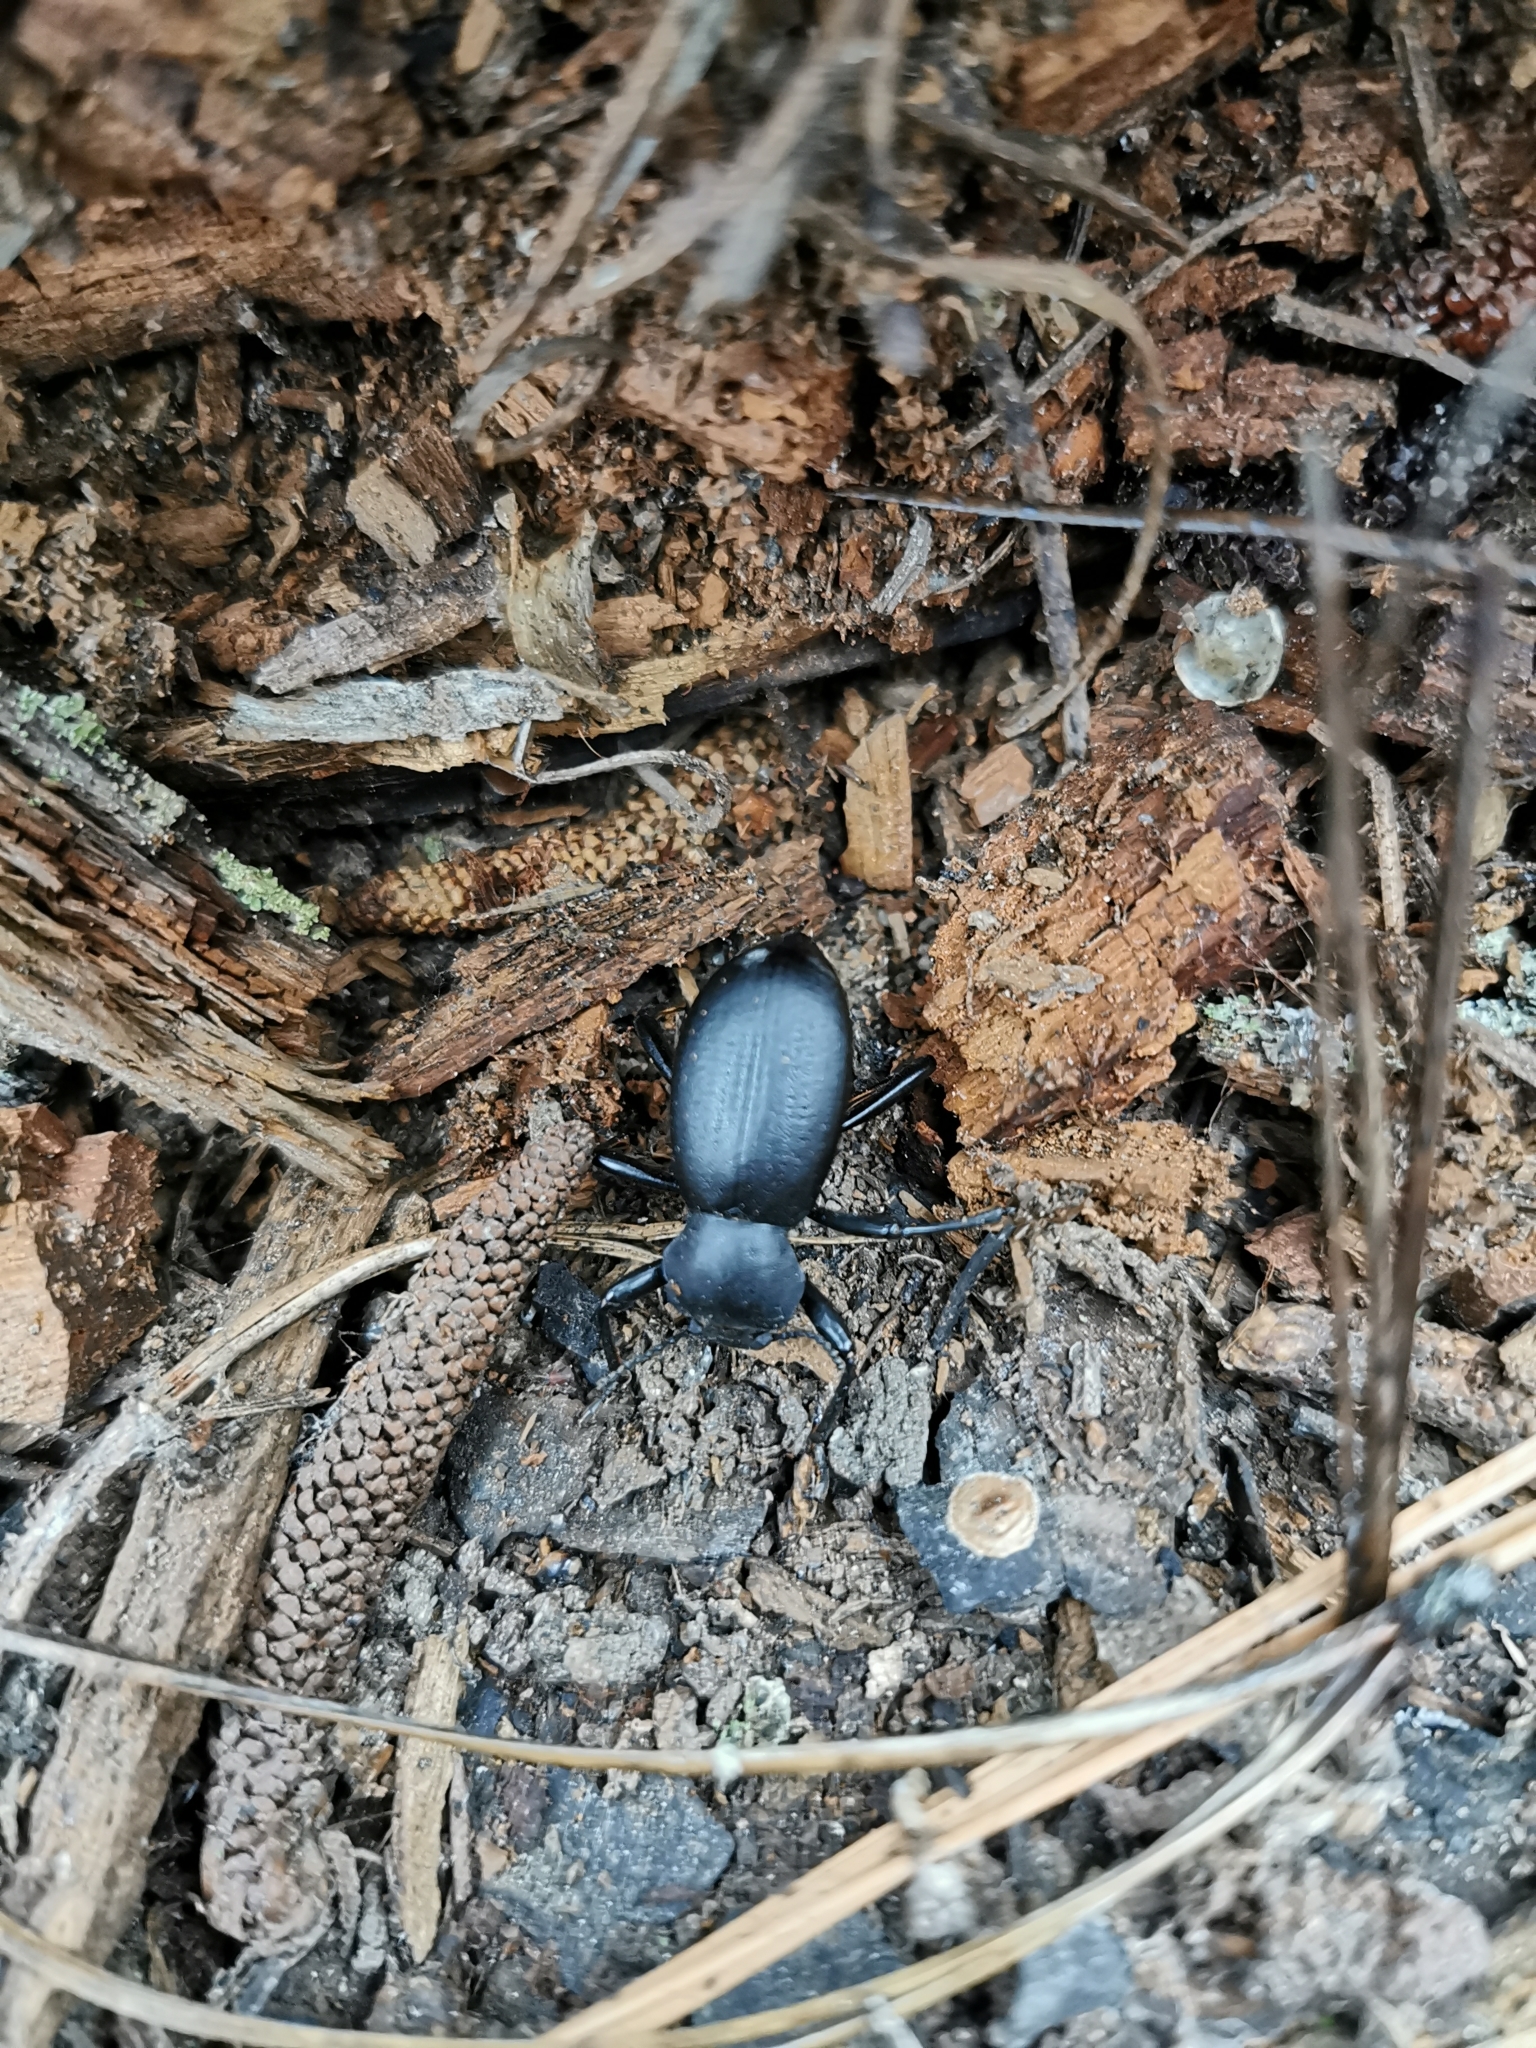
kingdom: Animalia
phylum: Arthropoda
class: Insecta
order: Coleoptera
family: Tenebrionidae
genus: Coelocnemis
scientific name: Coelocnemis dilaticollis
